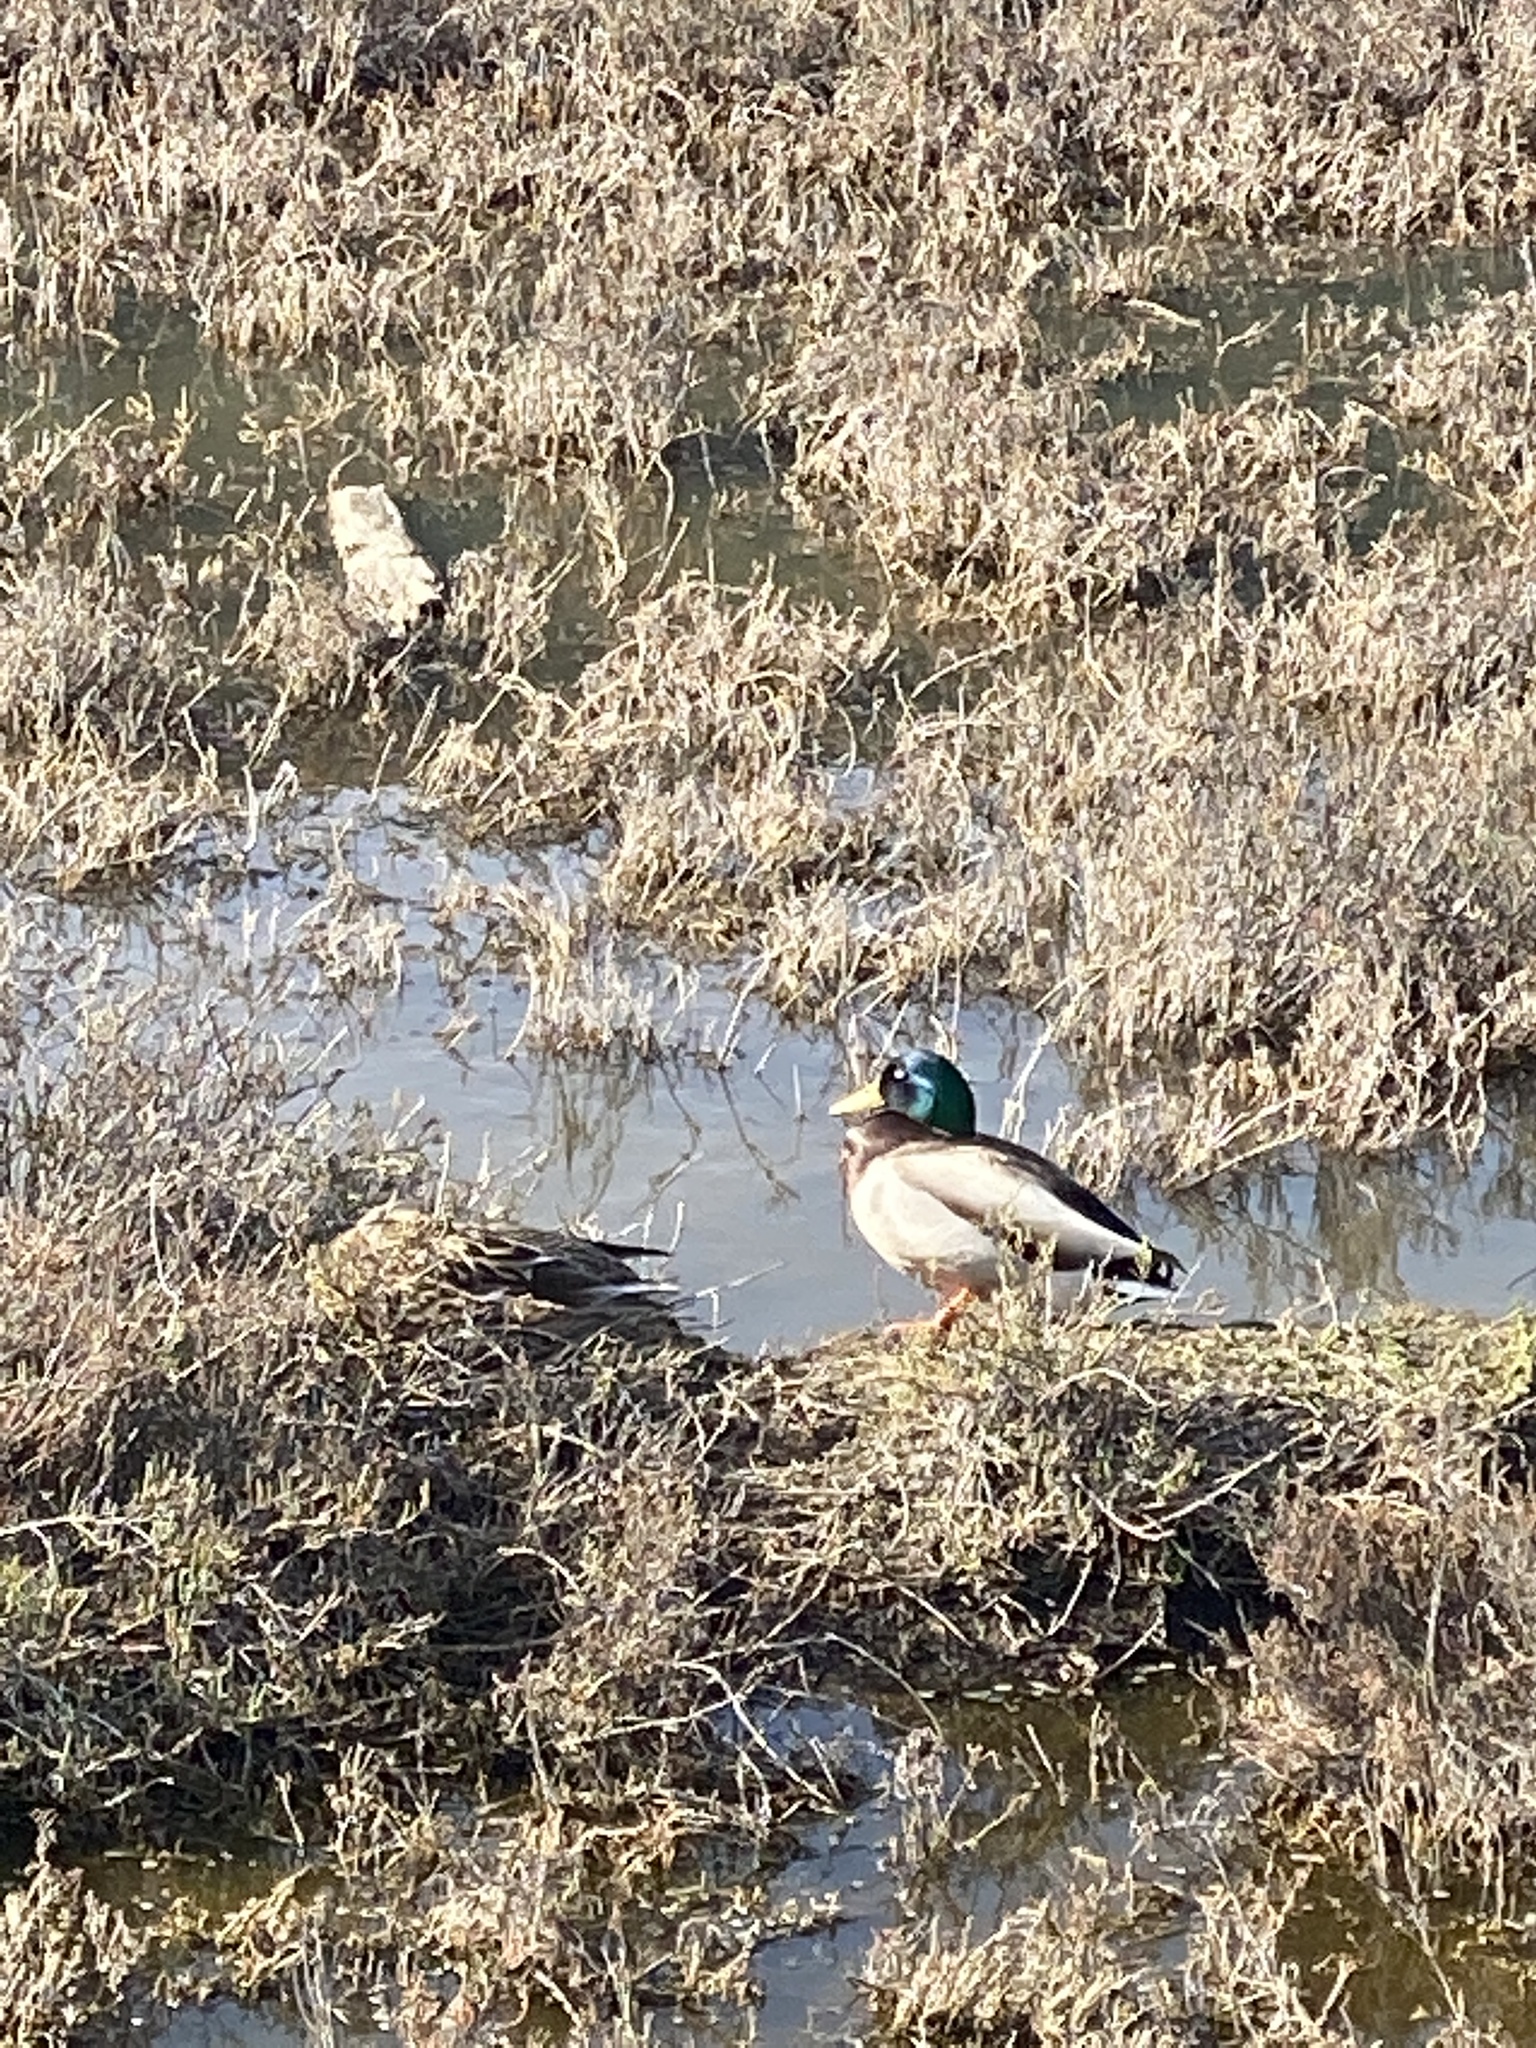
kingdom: Animalia
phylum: Chordata
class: Aves
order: Anseriformes
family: Anatidae
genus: Anas
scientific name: Anas platyrhynchos
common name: Mallard
